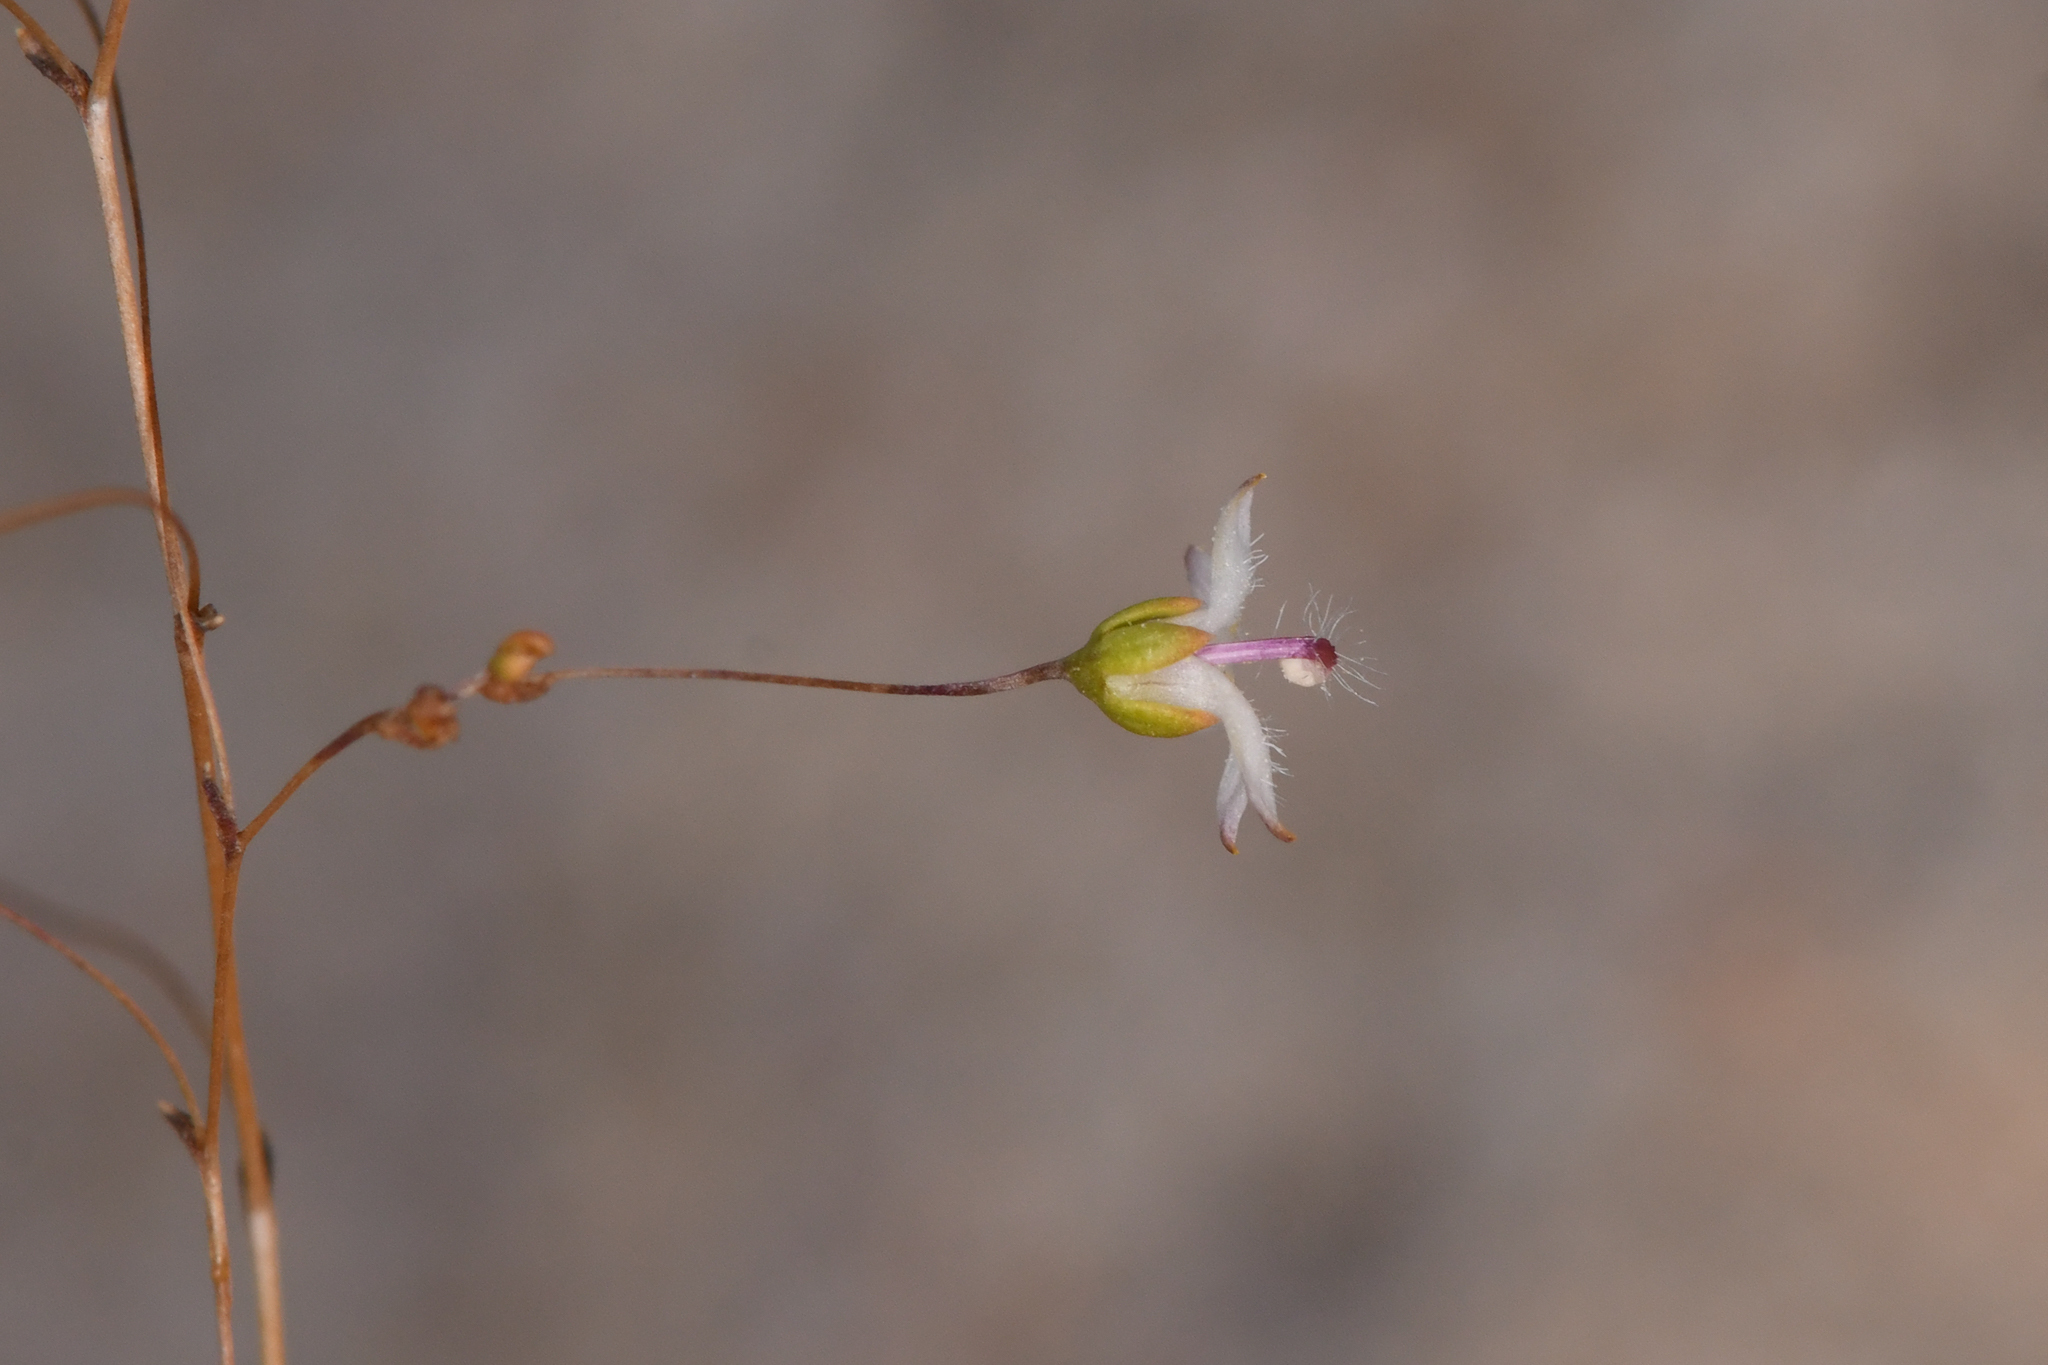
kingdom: Plantae
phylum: Tracheophyta
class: Magnoliopsida
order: Asterales
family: Campanulaceae
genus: Nemacladus
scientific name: Nemacladus matsonii
